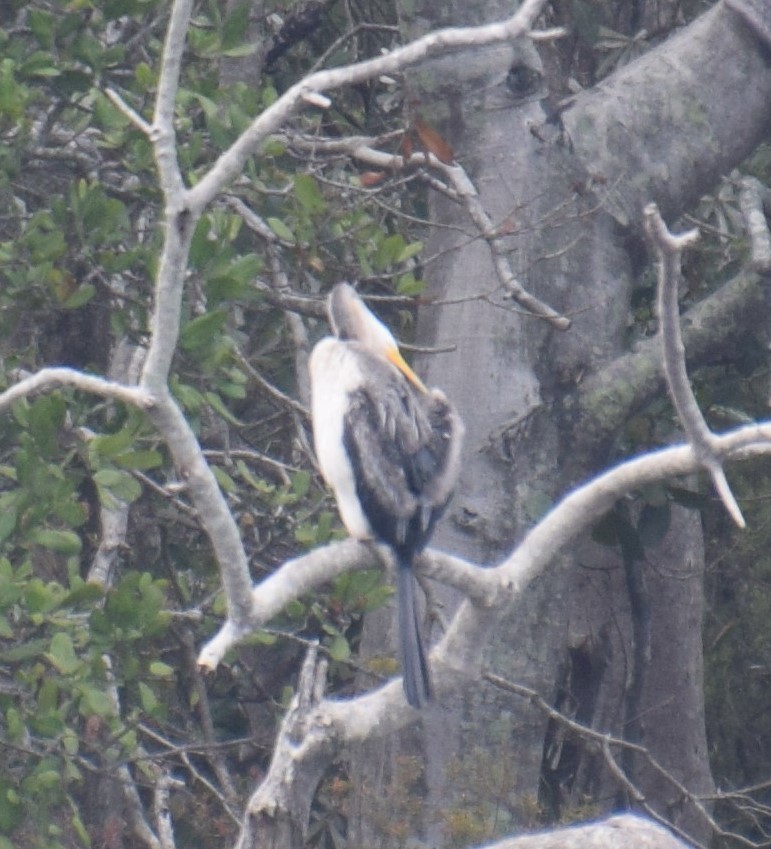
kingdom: Animalia
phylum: Chordata
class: Aves
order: Suliformes
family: Anhingidae
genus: Anhinga
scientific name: Anhinga novaehollandiae
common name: Australasian darter
